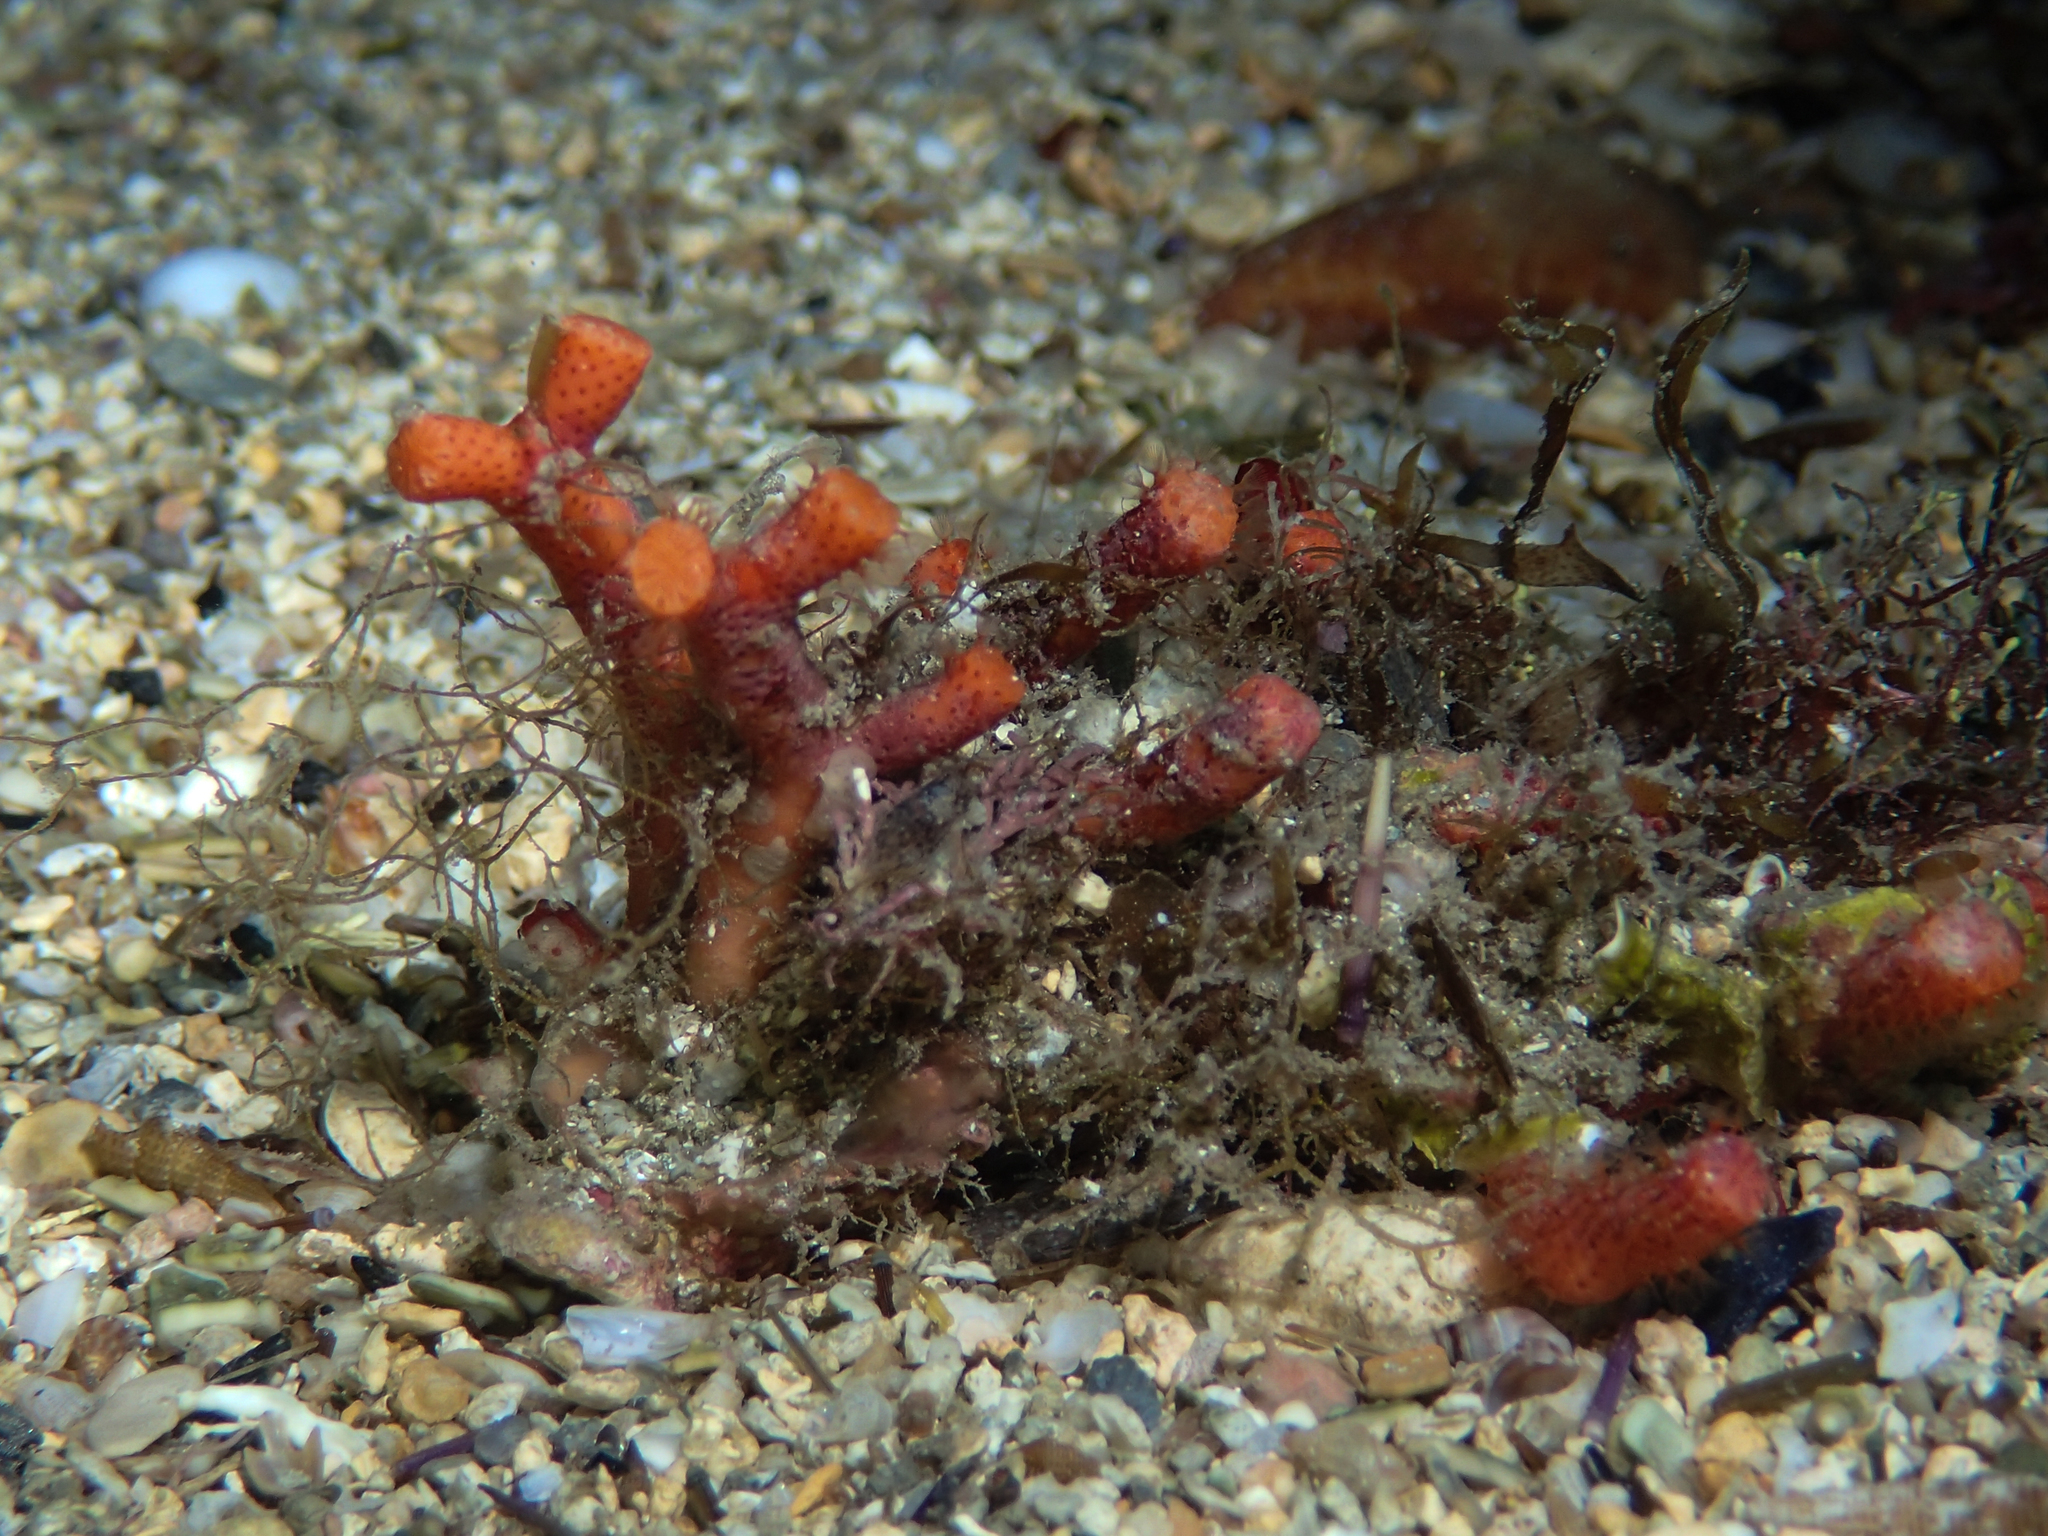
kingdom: Animalia
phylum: Bryozoa
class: Gymnolaemata
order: Cheilostomatida
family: Myriaporidae
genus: Myriapora
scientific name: Myriapora truncata
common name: False coral
